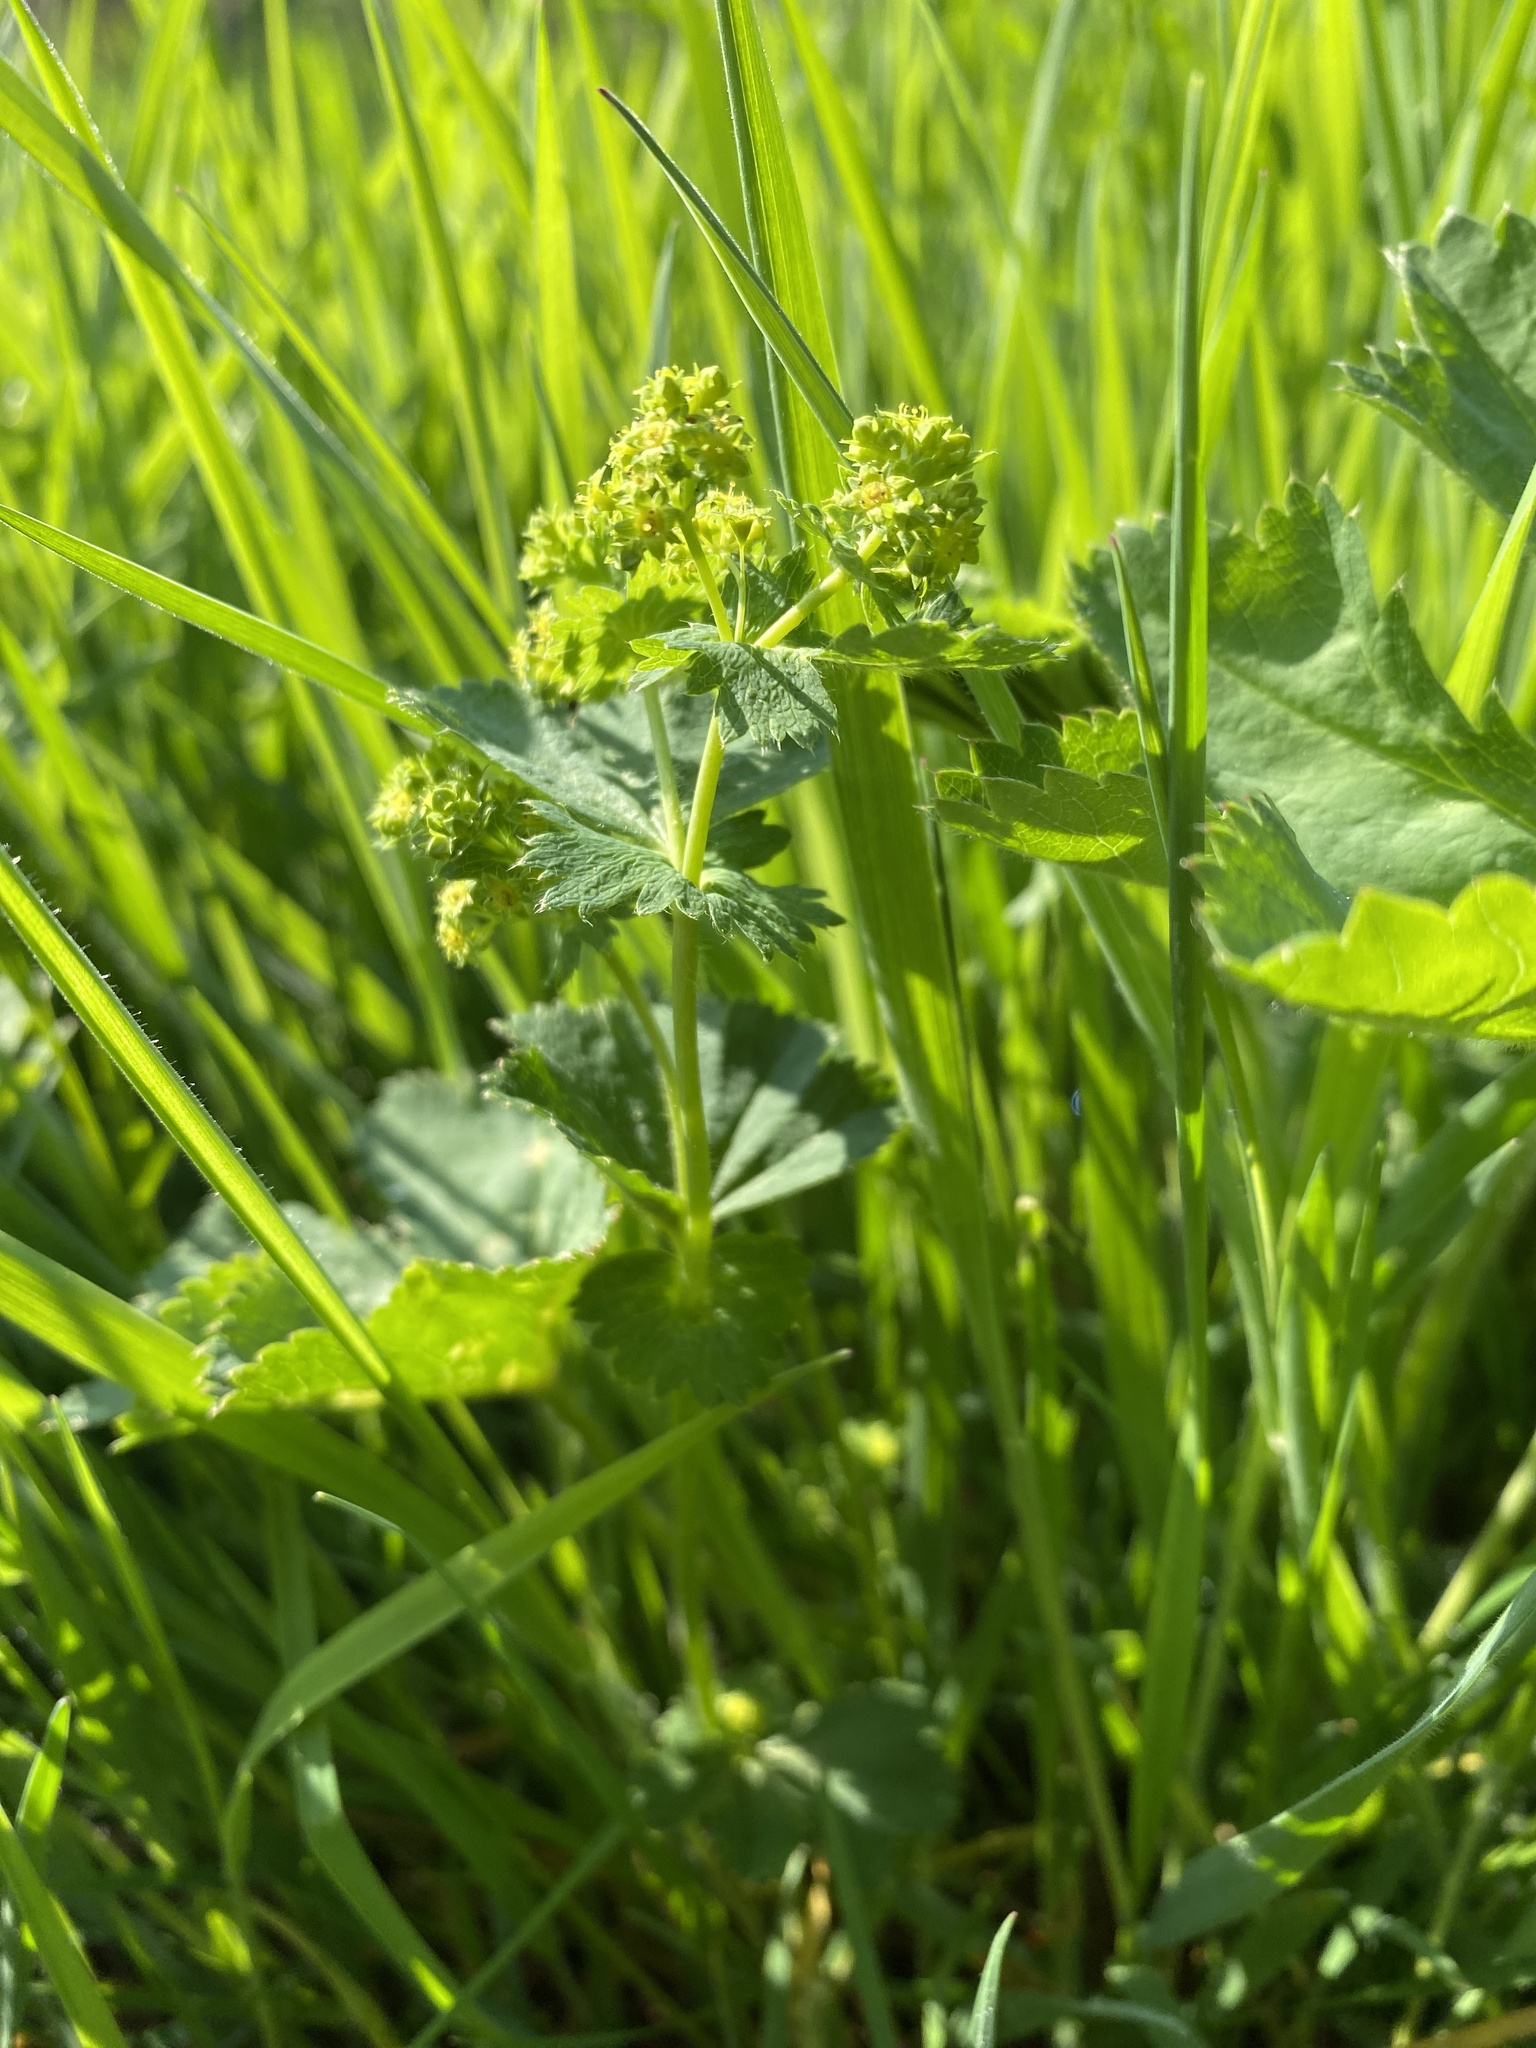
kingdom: Plantae
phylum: Tracheophyta
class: Magnoliopsida
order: Rosales
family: Rosaceae
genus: Alchemilla
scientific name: Alchemilla vulgaris
